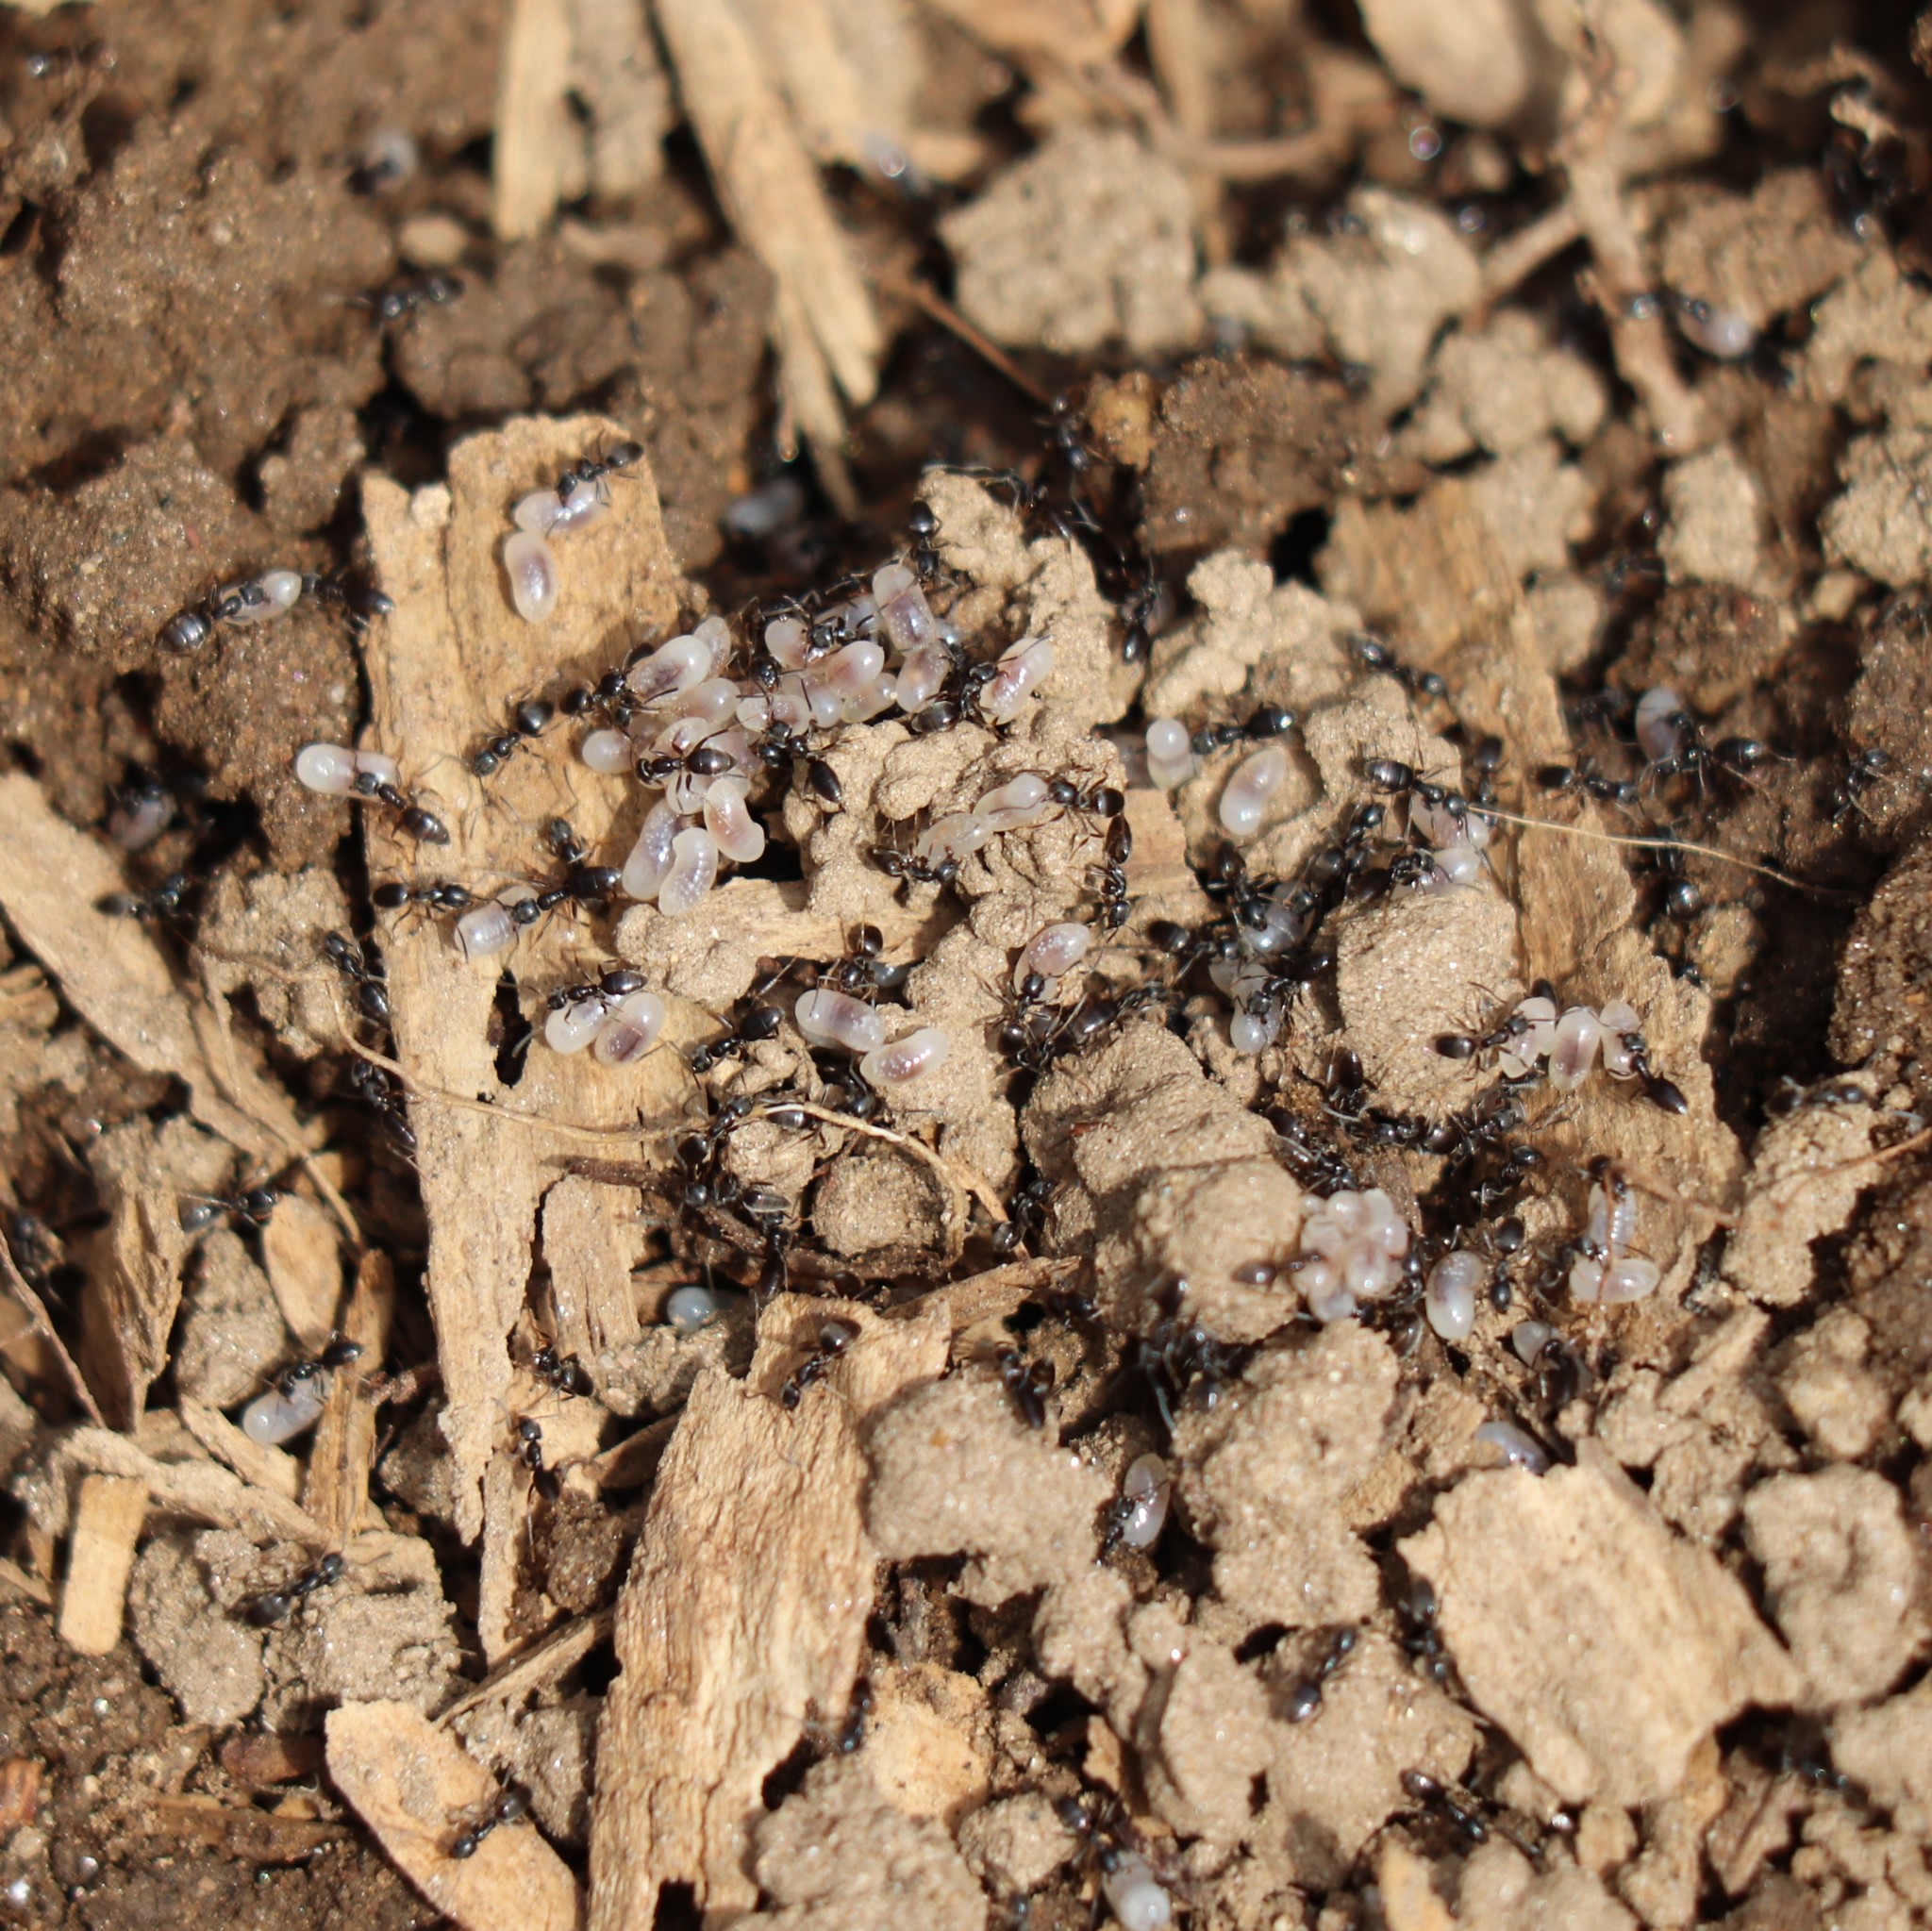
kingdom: Animalia
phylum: Arthropoda
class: Insecta
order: Hymenoptera
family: Formicidae
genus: Tapinoma
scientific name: Tapinoma sessile
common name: Odorous house ant
